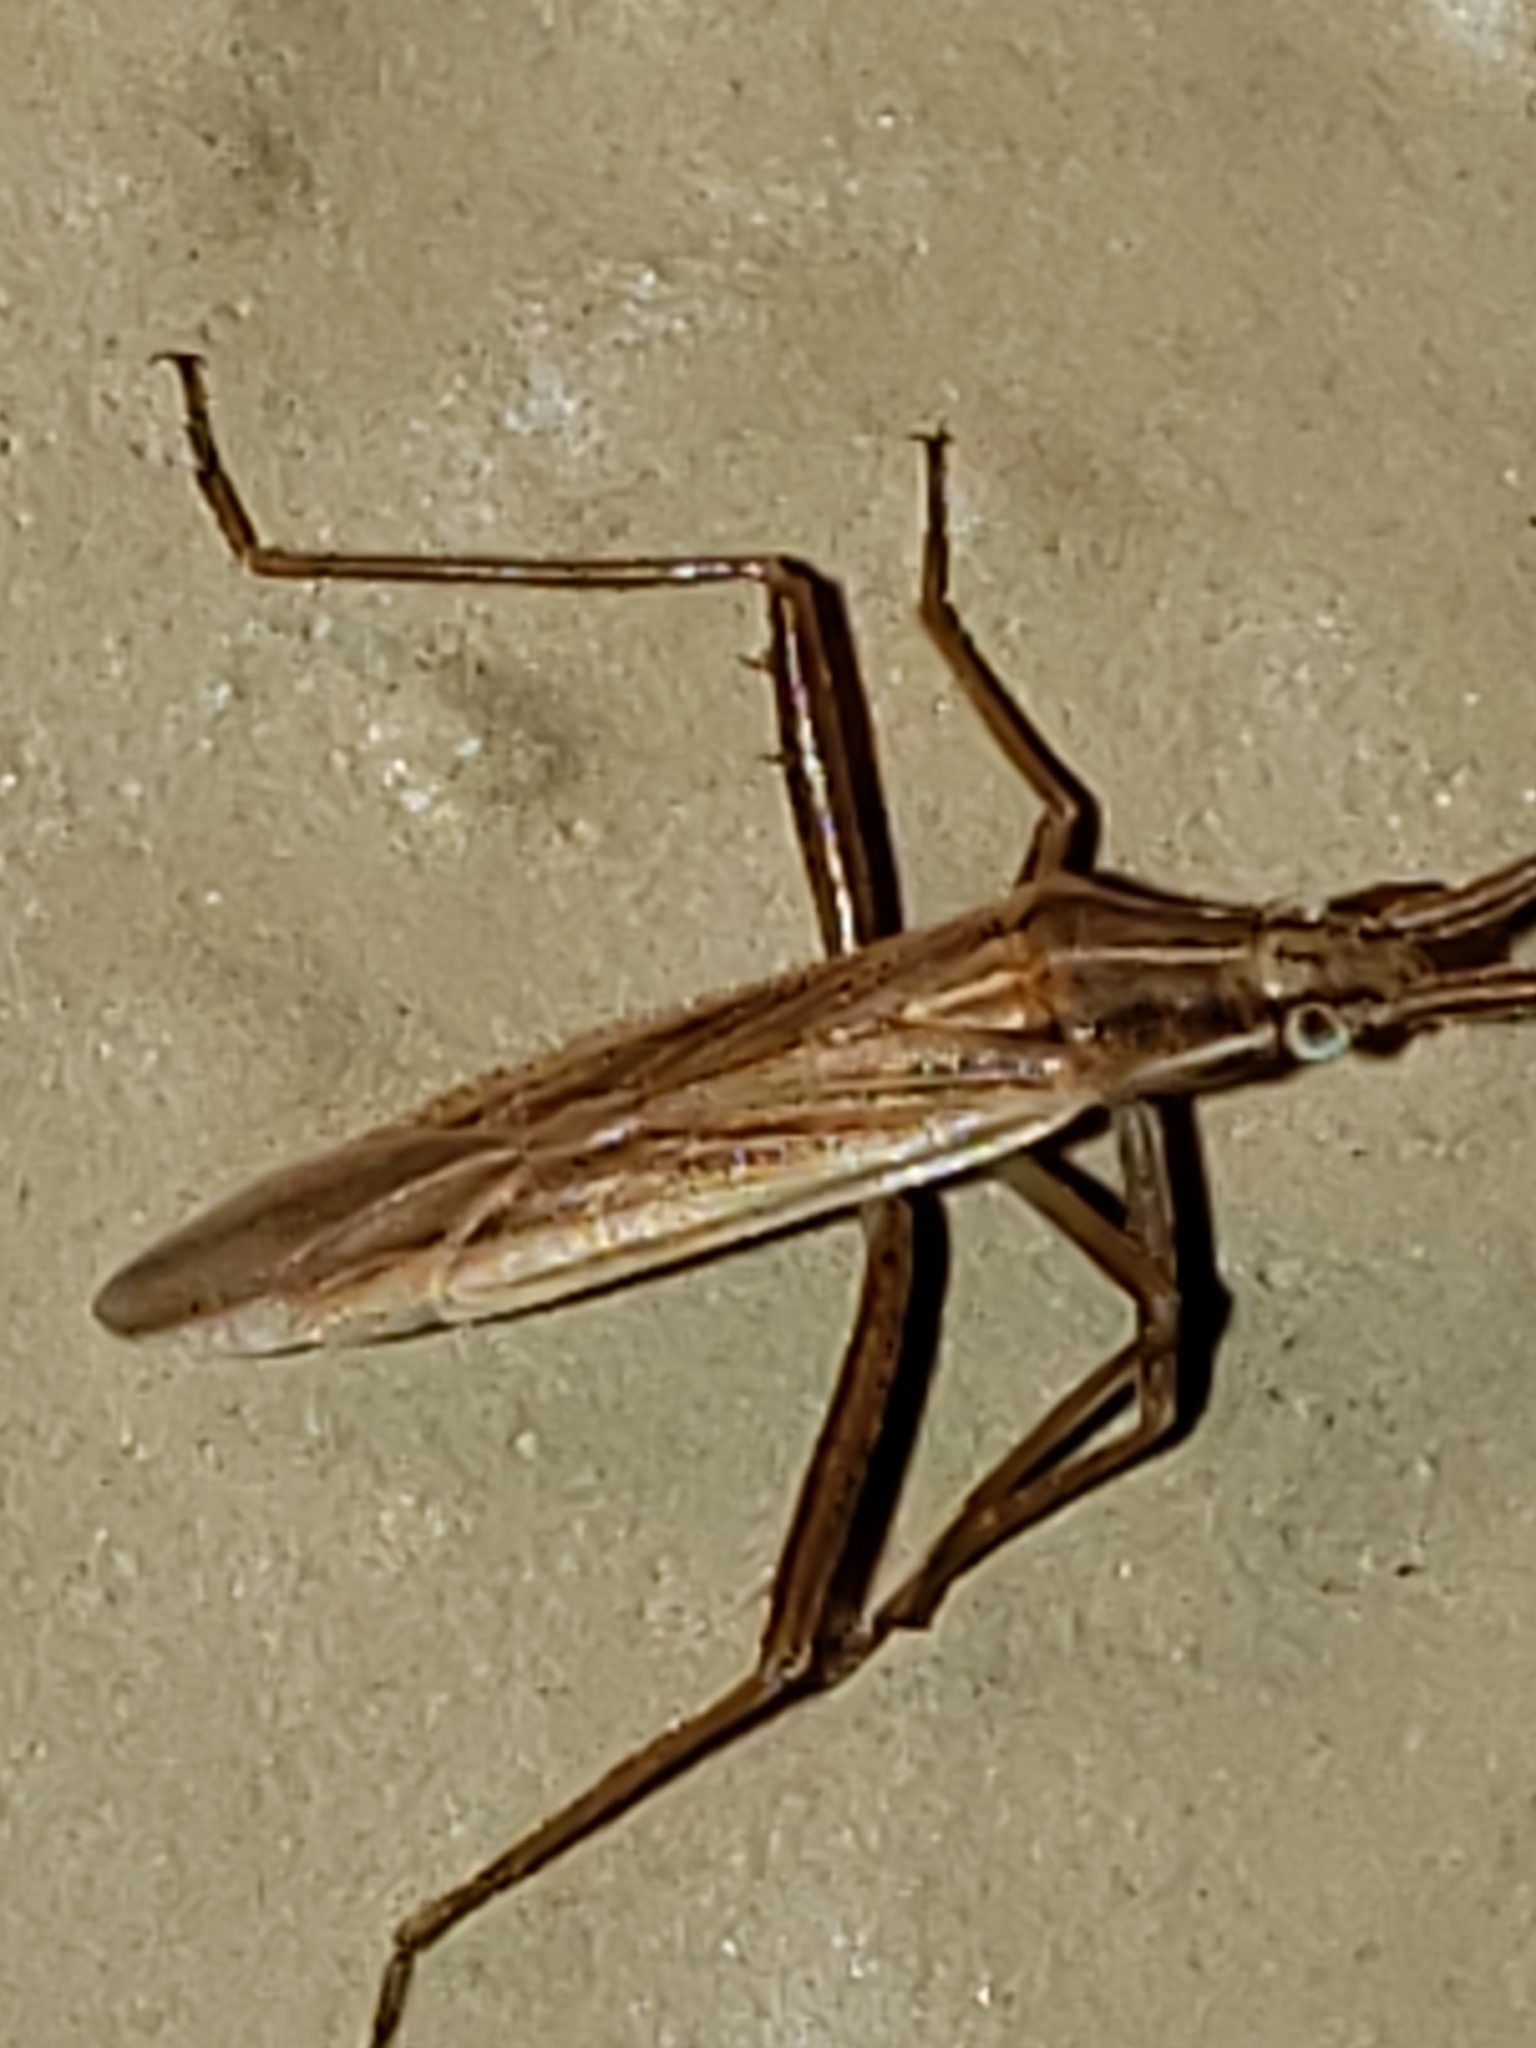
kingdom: Animalia
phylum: Arthropoda
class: Insecta
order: Hemiptera
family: Miridae
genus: Stenodema
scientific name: Stenodema trispinosa
